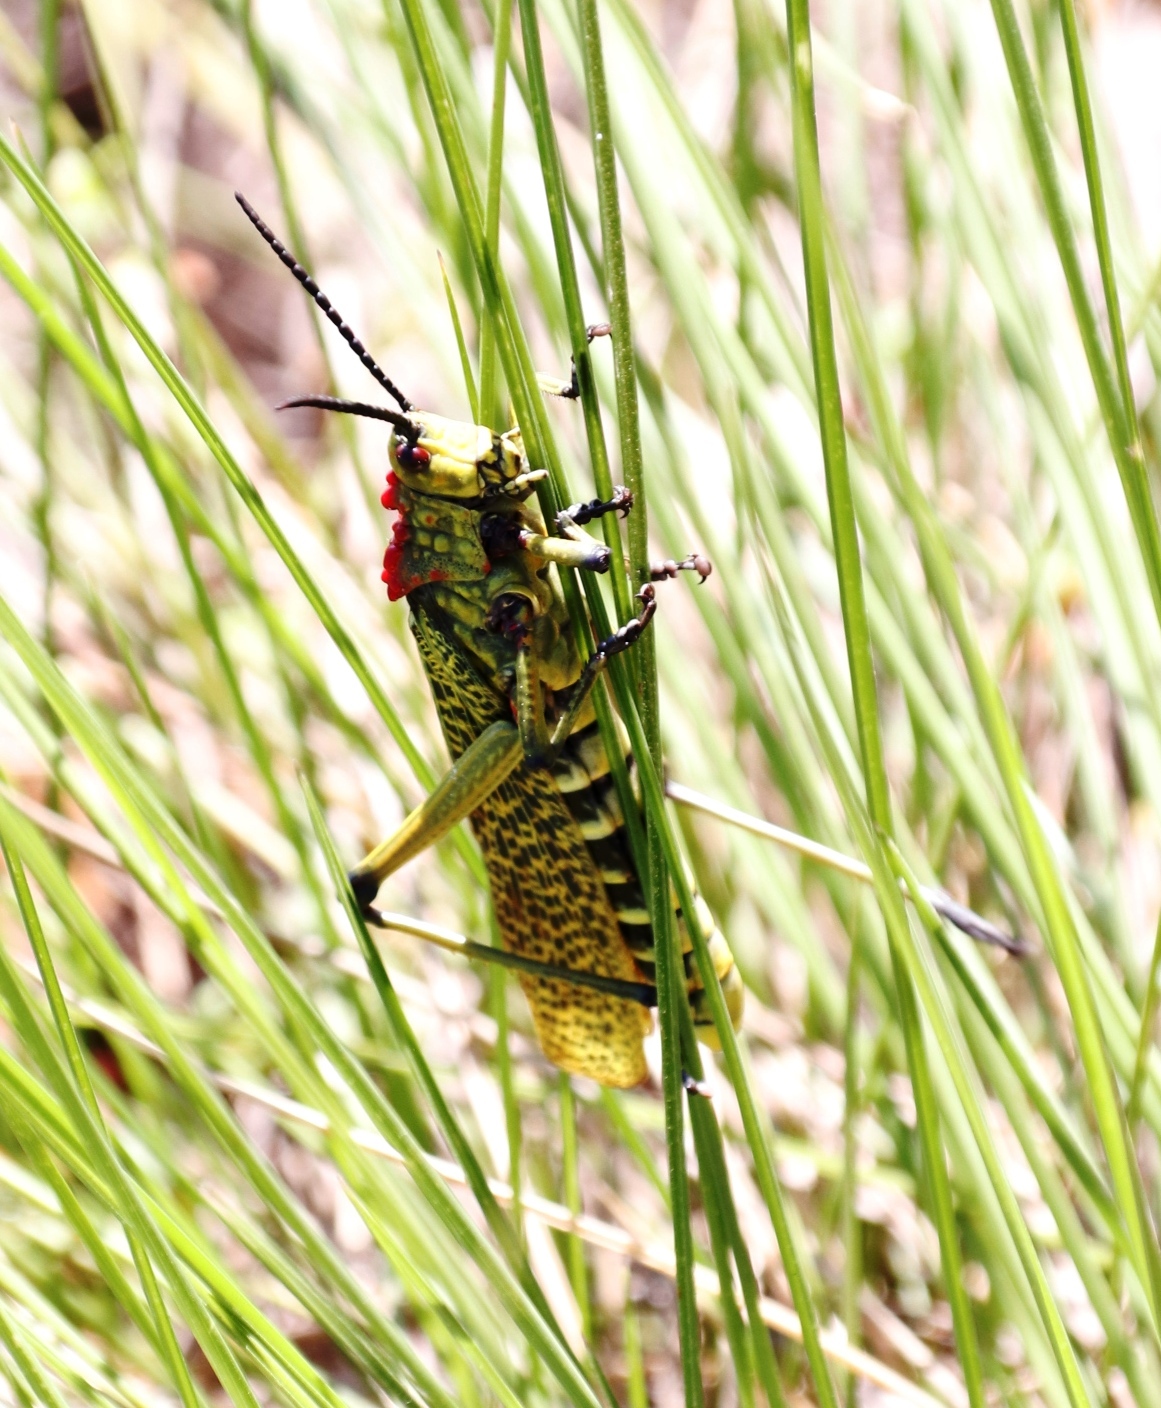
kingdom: Animalia
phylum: Arthropoda
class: Insecta
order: Orthoptera
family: Pyrgomorphidae
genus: Phymateus
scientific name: Phymateus karschi
